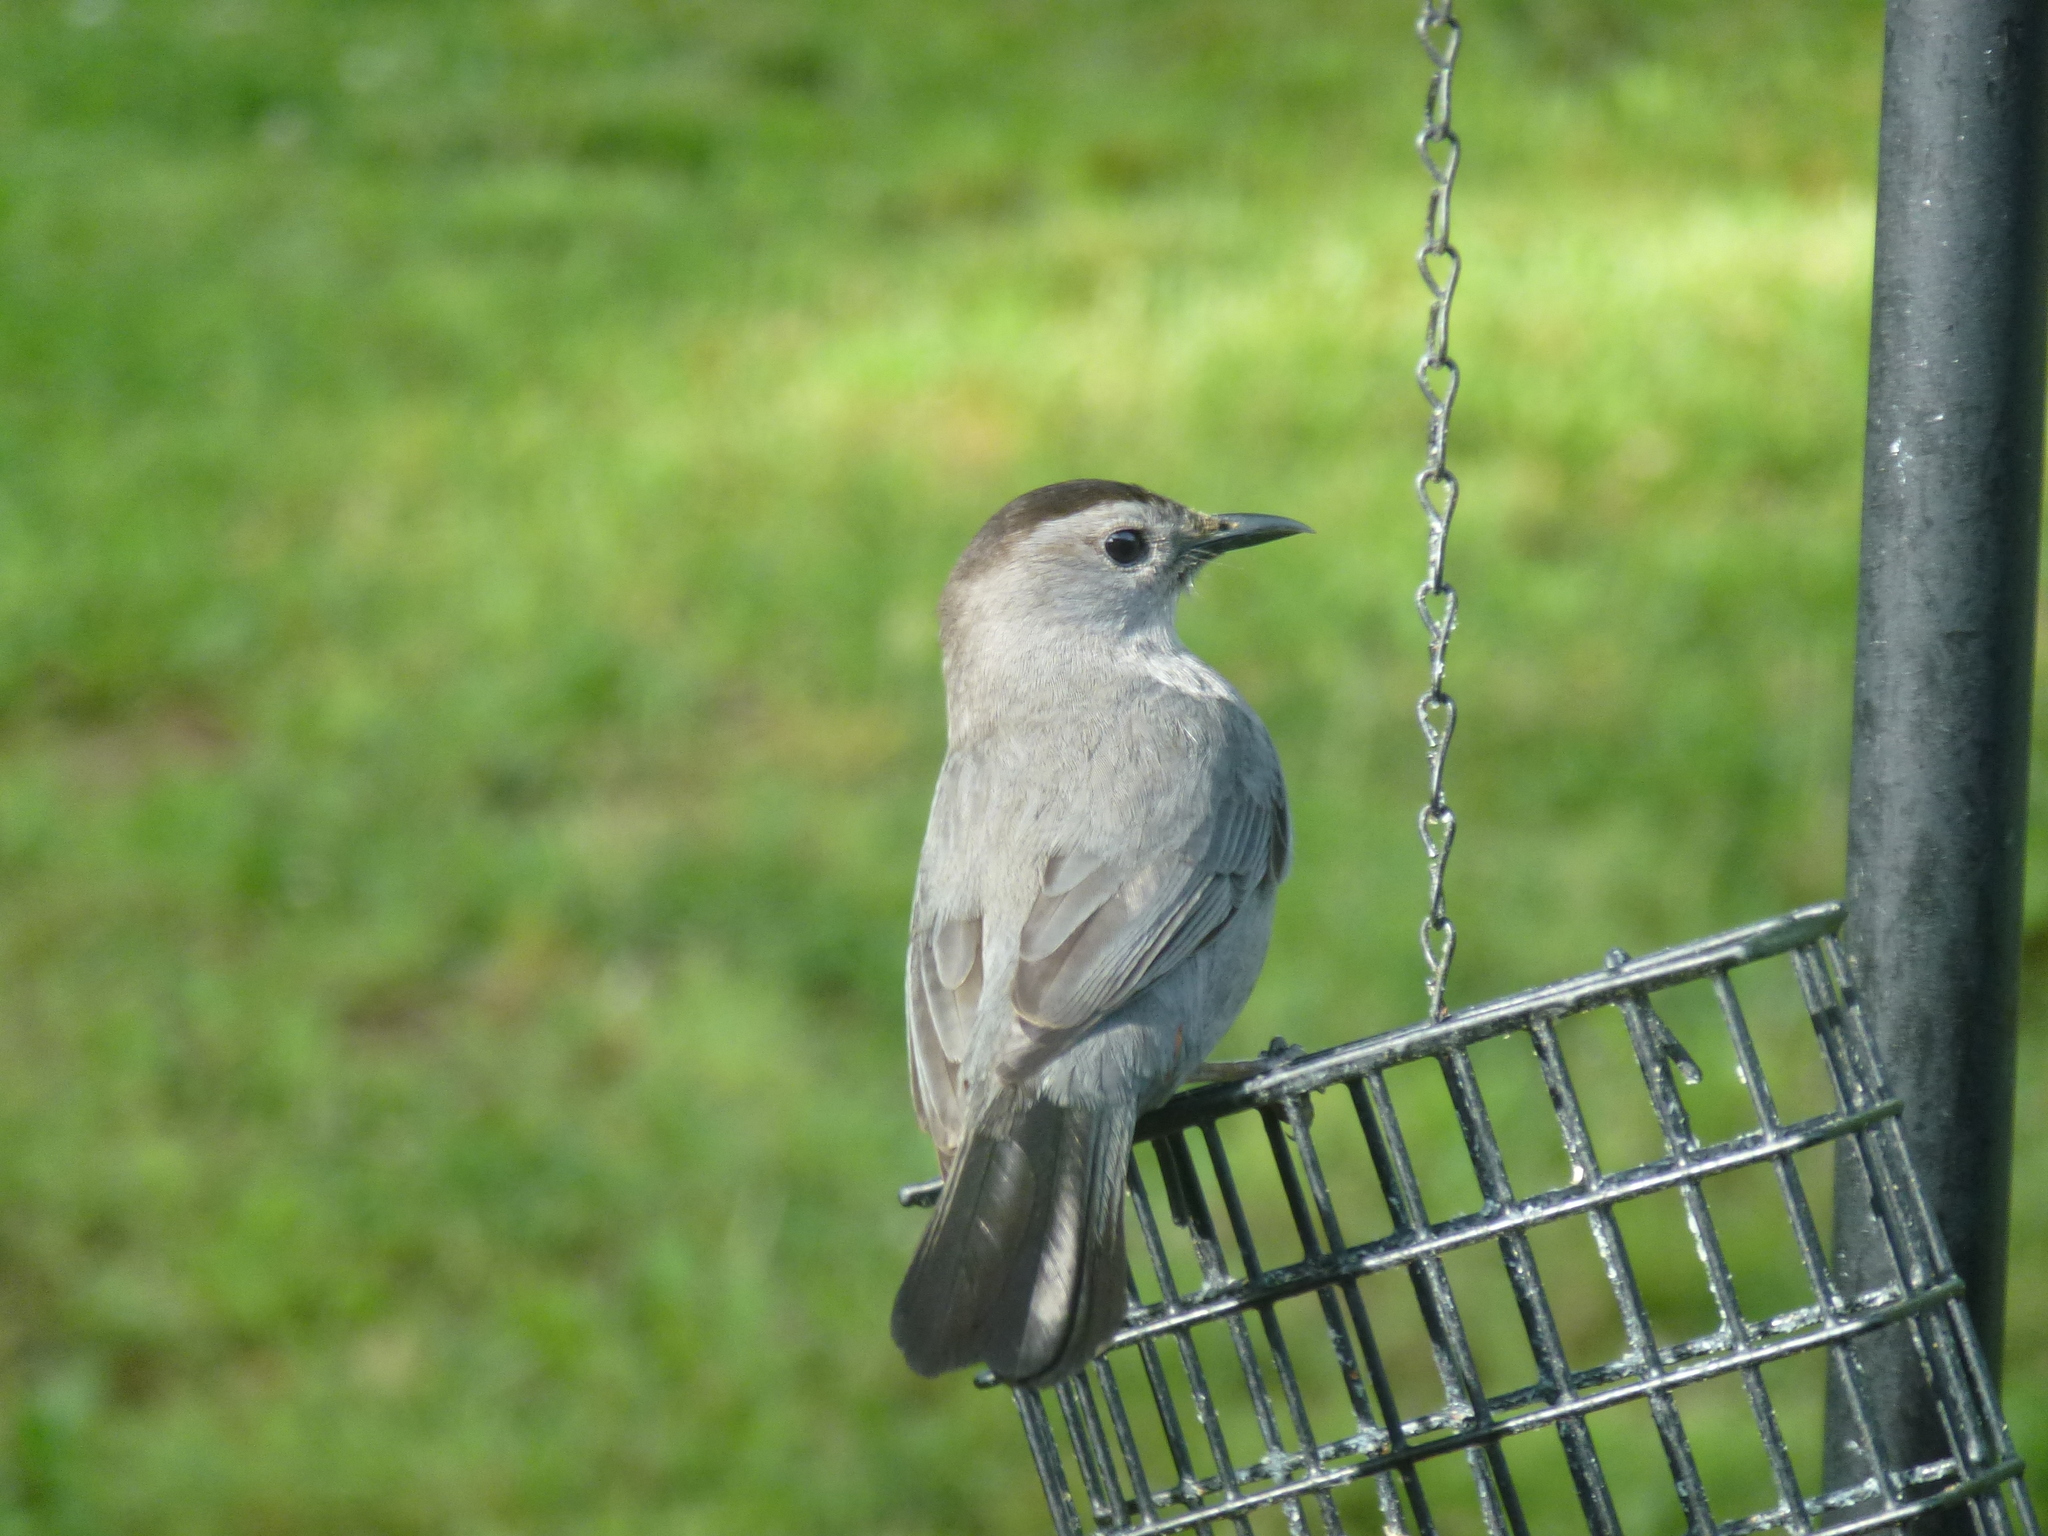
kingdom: Animalia
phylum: Chordata
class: Aves
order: Passeriformes
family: Mimidae
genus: Dumetella
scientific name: Dumetella carolinensis
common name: Gray catbird
